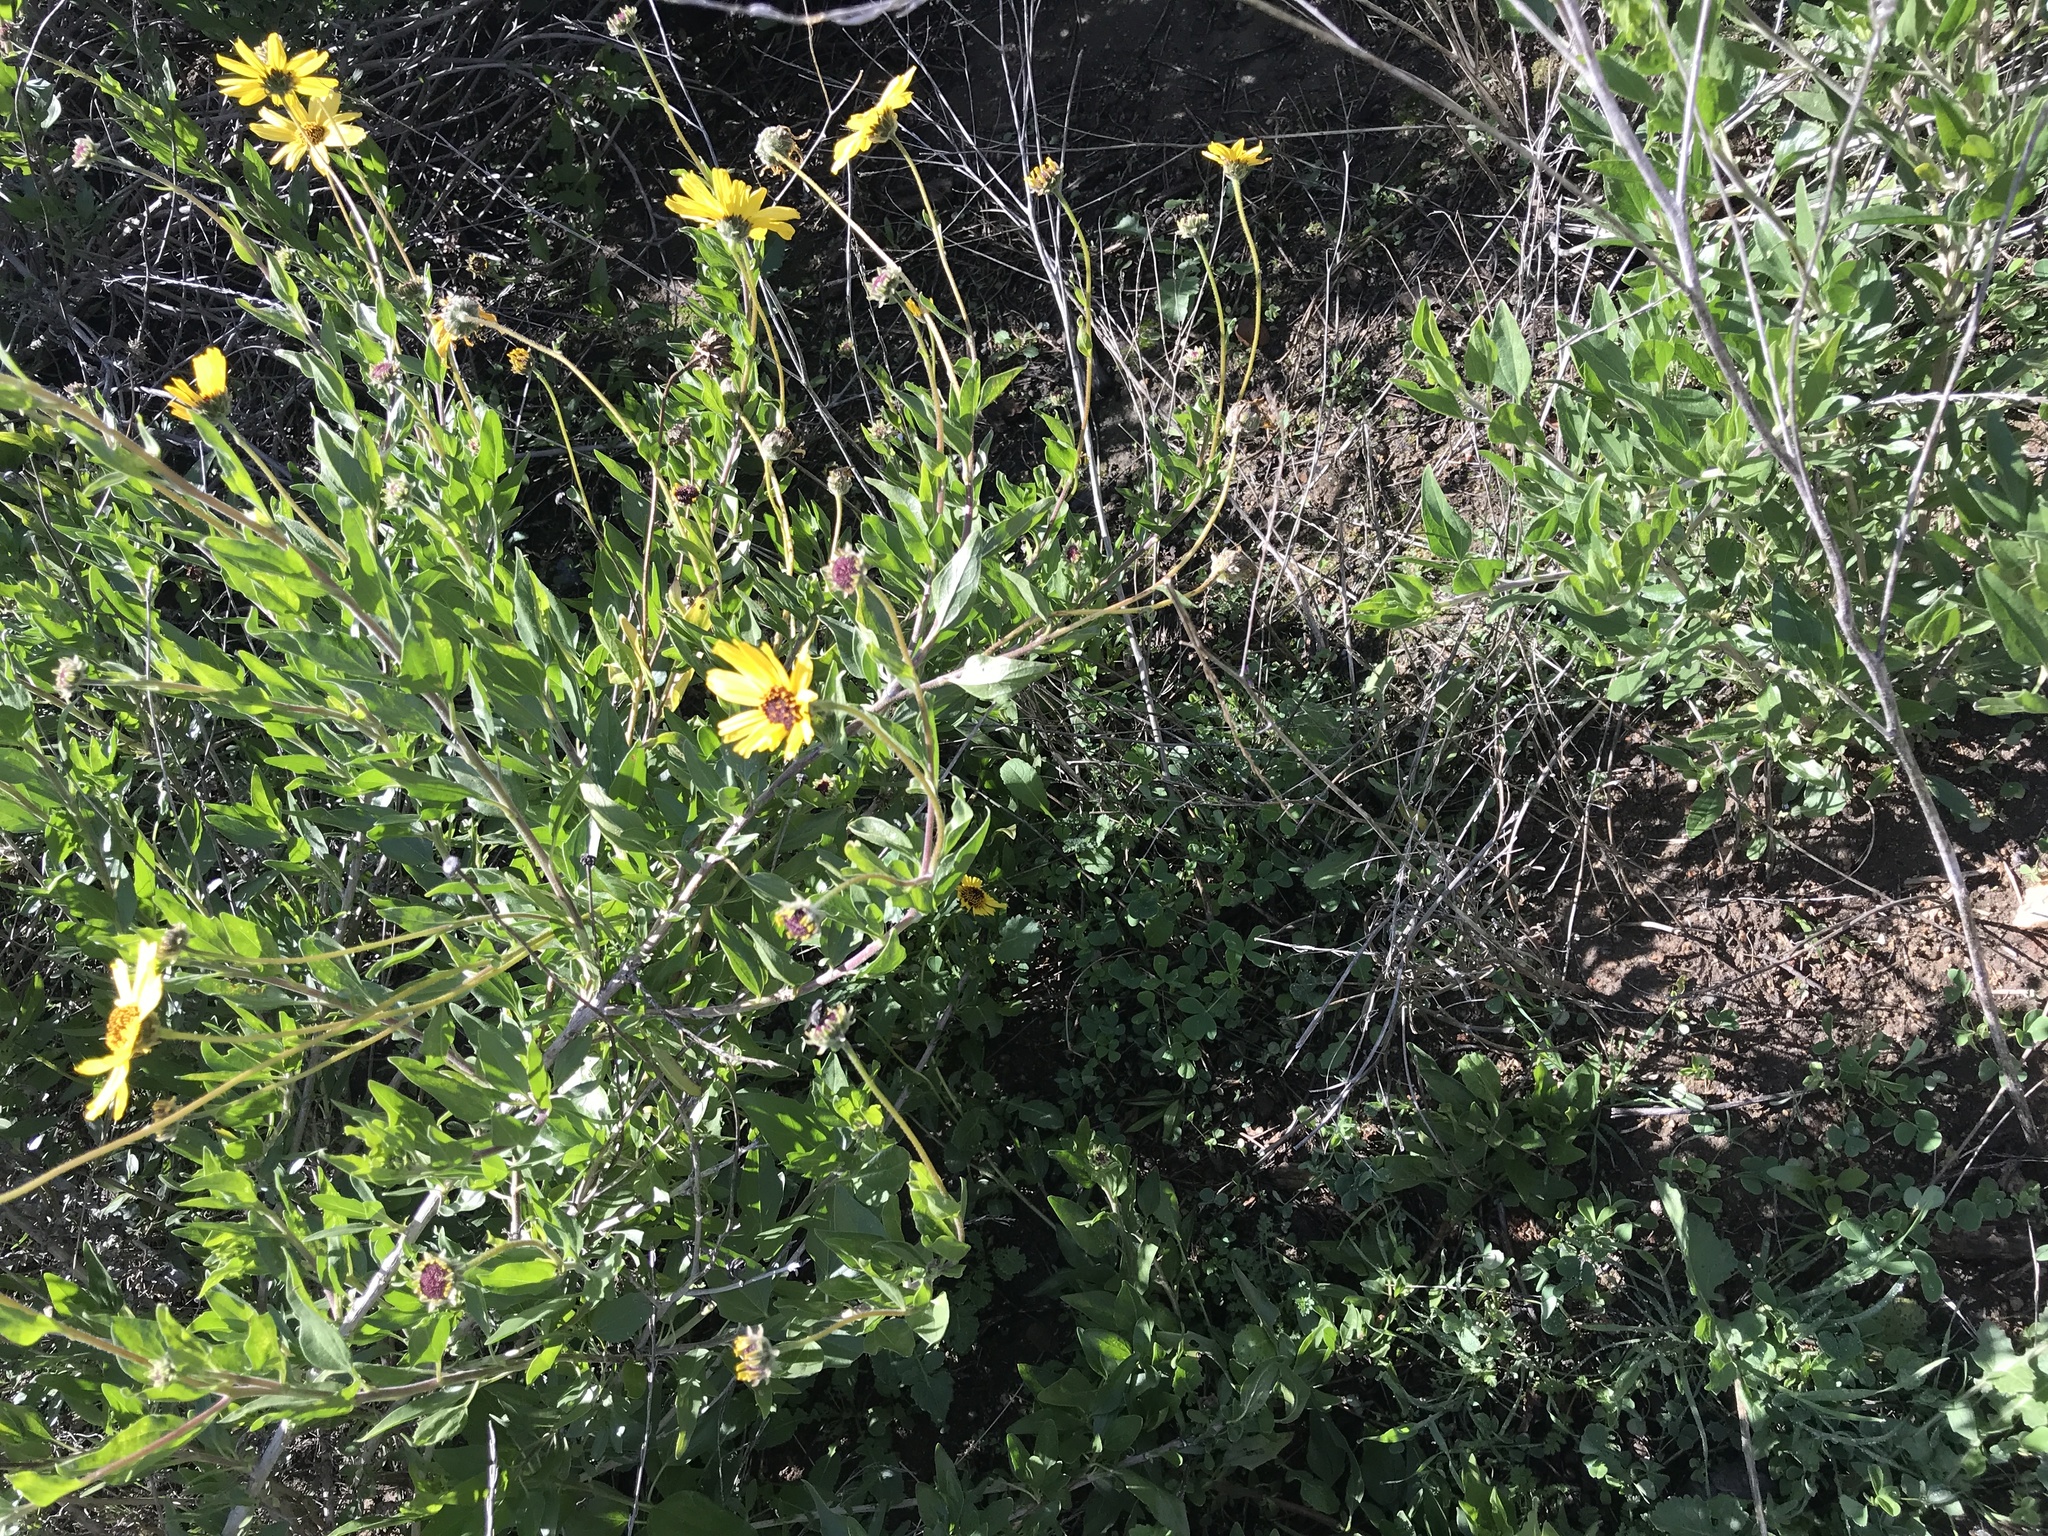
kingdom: Plantae
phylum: Tracheophyta
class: Magnoliopsida
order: Asterales
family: Asteraceae
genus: Encelia
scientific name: Encelia californica
